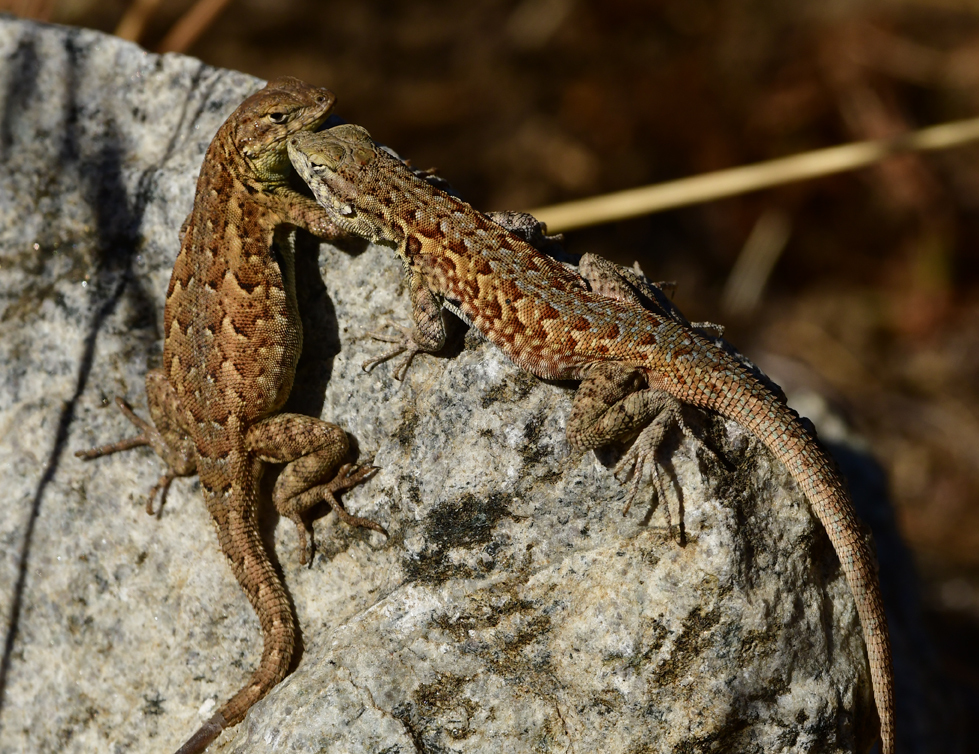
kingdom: Animalia
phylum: Chordata
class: Squamata
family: Phrynosomatidae
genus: Uta
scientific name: Uta stansburiana
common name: Side-blotched lizard
